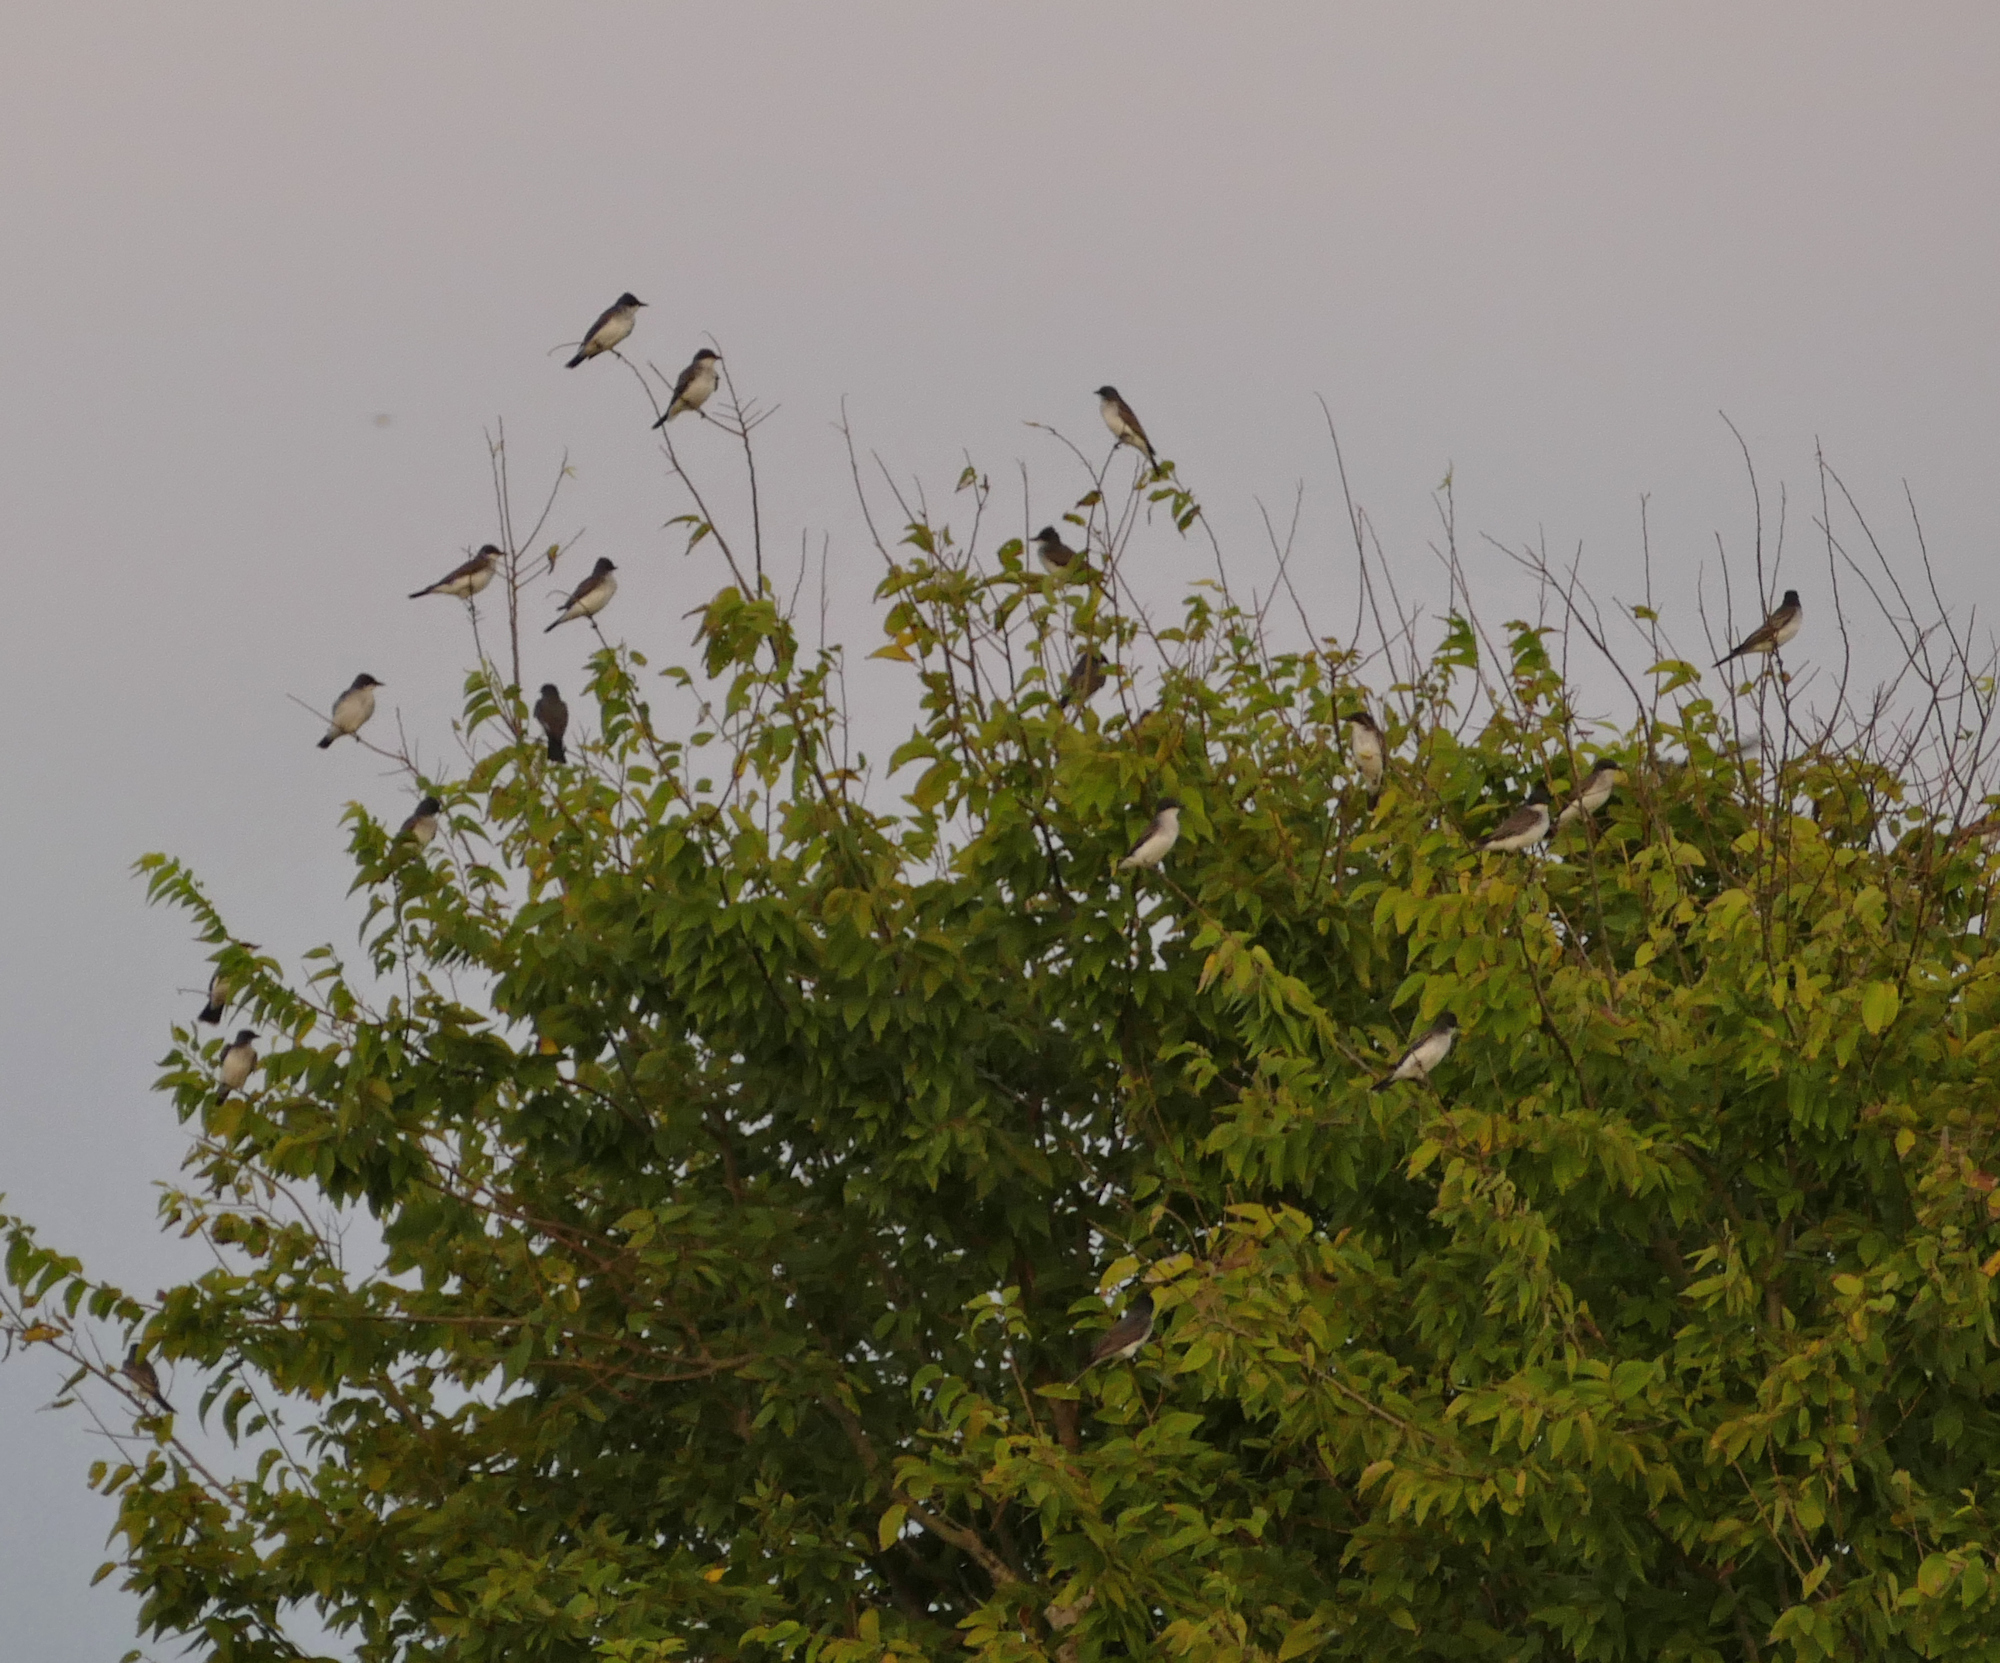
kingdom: Animalia
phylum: Chordata
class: Aves
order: Passeriformes
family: Tyrannidae
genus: Tyrannus
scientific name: Tyrannus tyrannus
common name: Eastern kingbird
